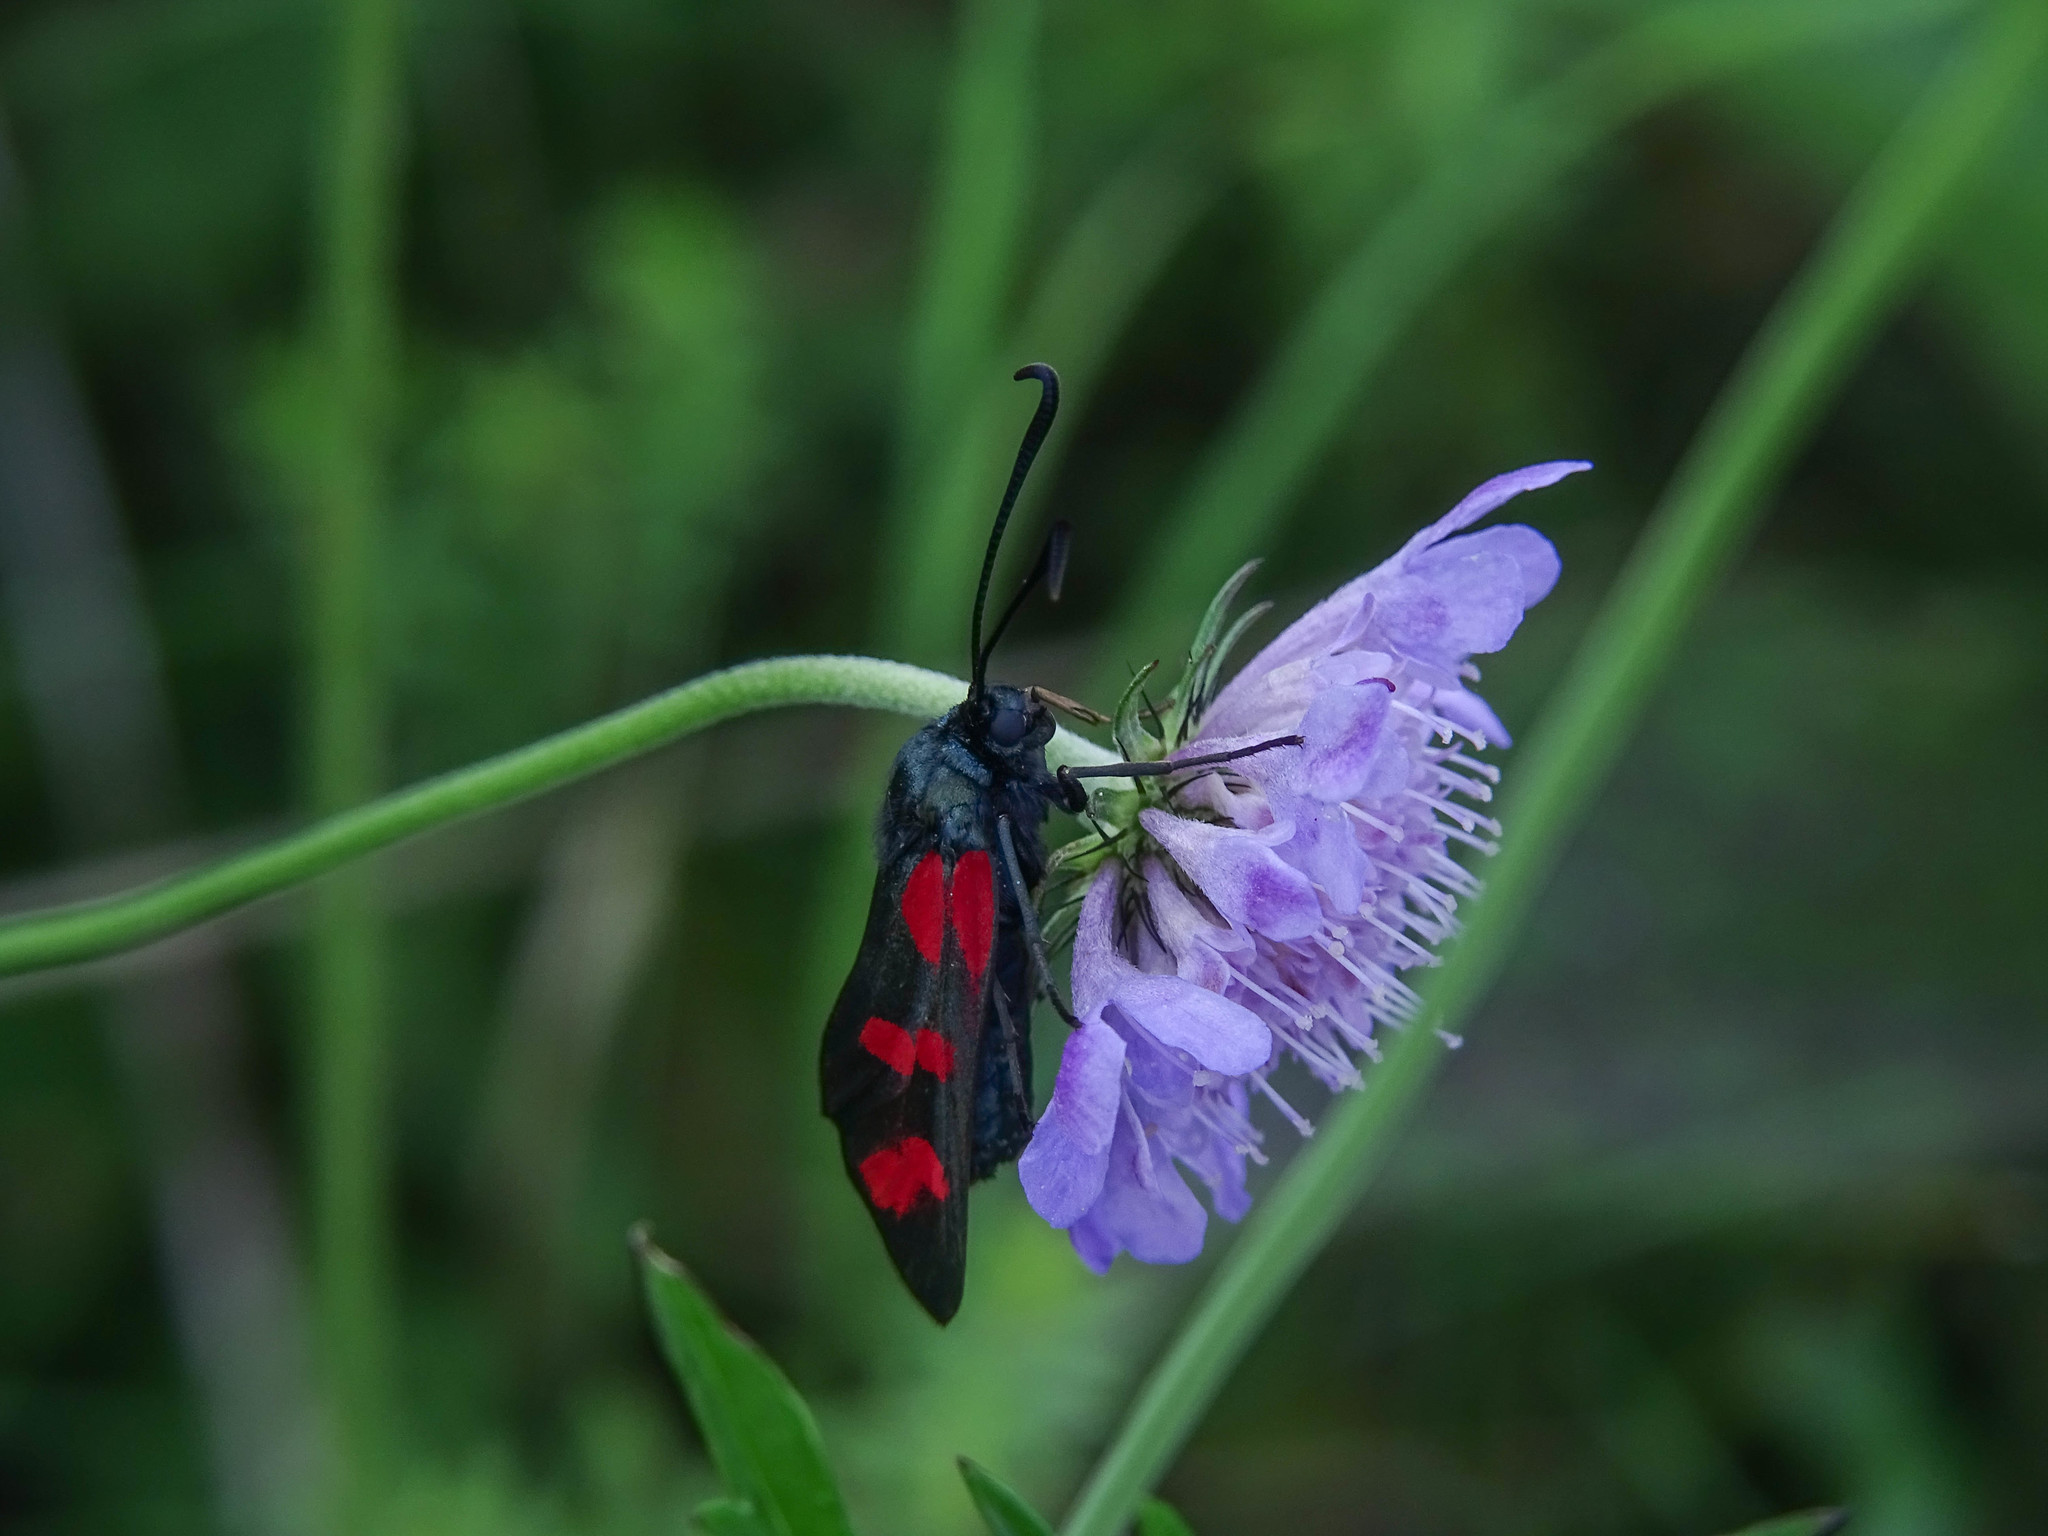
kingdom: Animalia
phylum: Arthropoda
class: Insecta
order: Lepidoptera
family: Zygaenidae
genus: Zygaena
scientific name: Zygaena filipendulae
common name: Six-spot burnet
